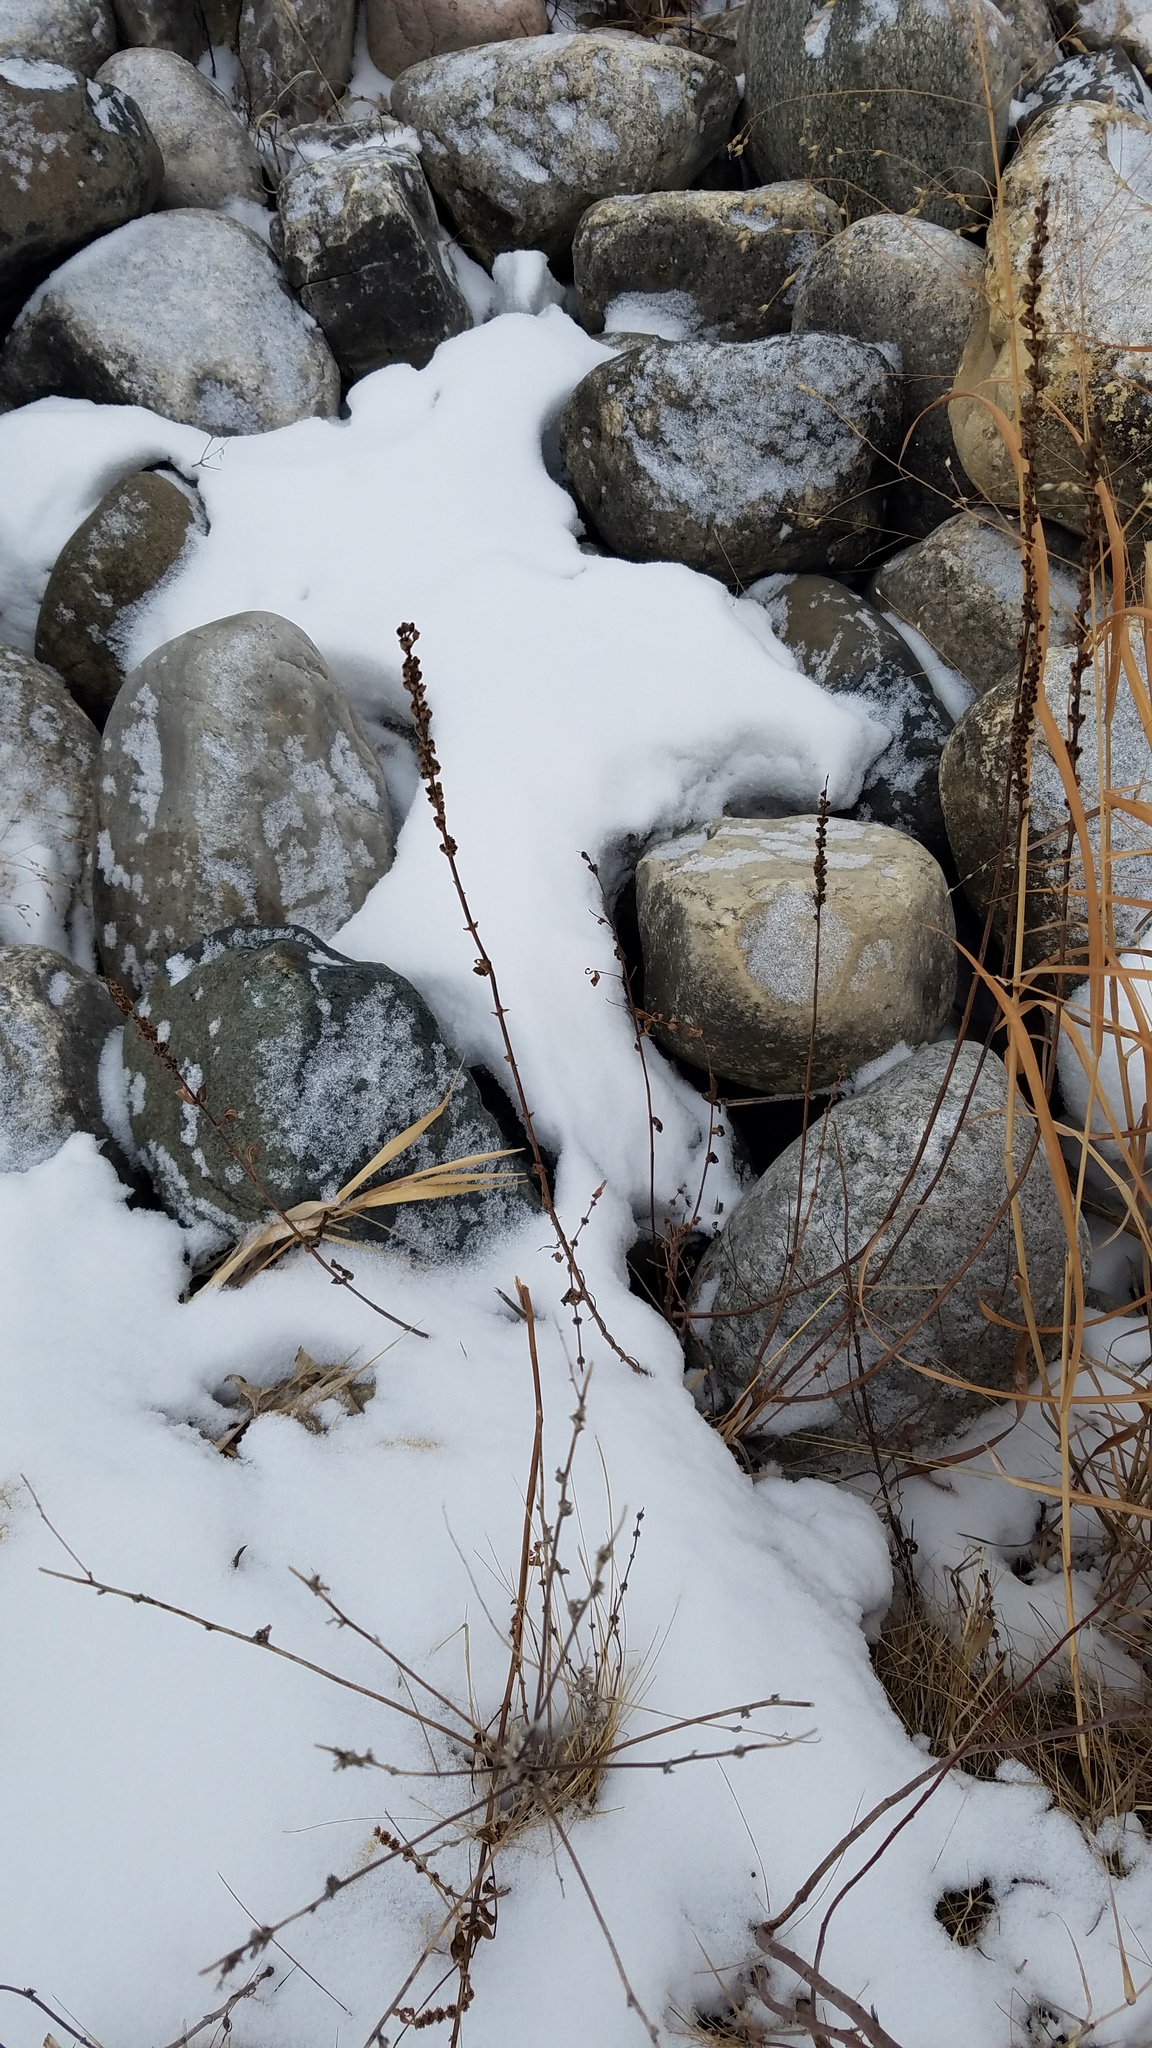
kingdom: Plantae
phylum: Tracheophyta
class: Magnoliopsida
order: Myrtales
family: Lythraceae
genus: Lythrum
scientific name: Lythrum salicaria
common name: Purple loosestrife
